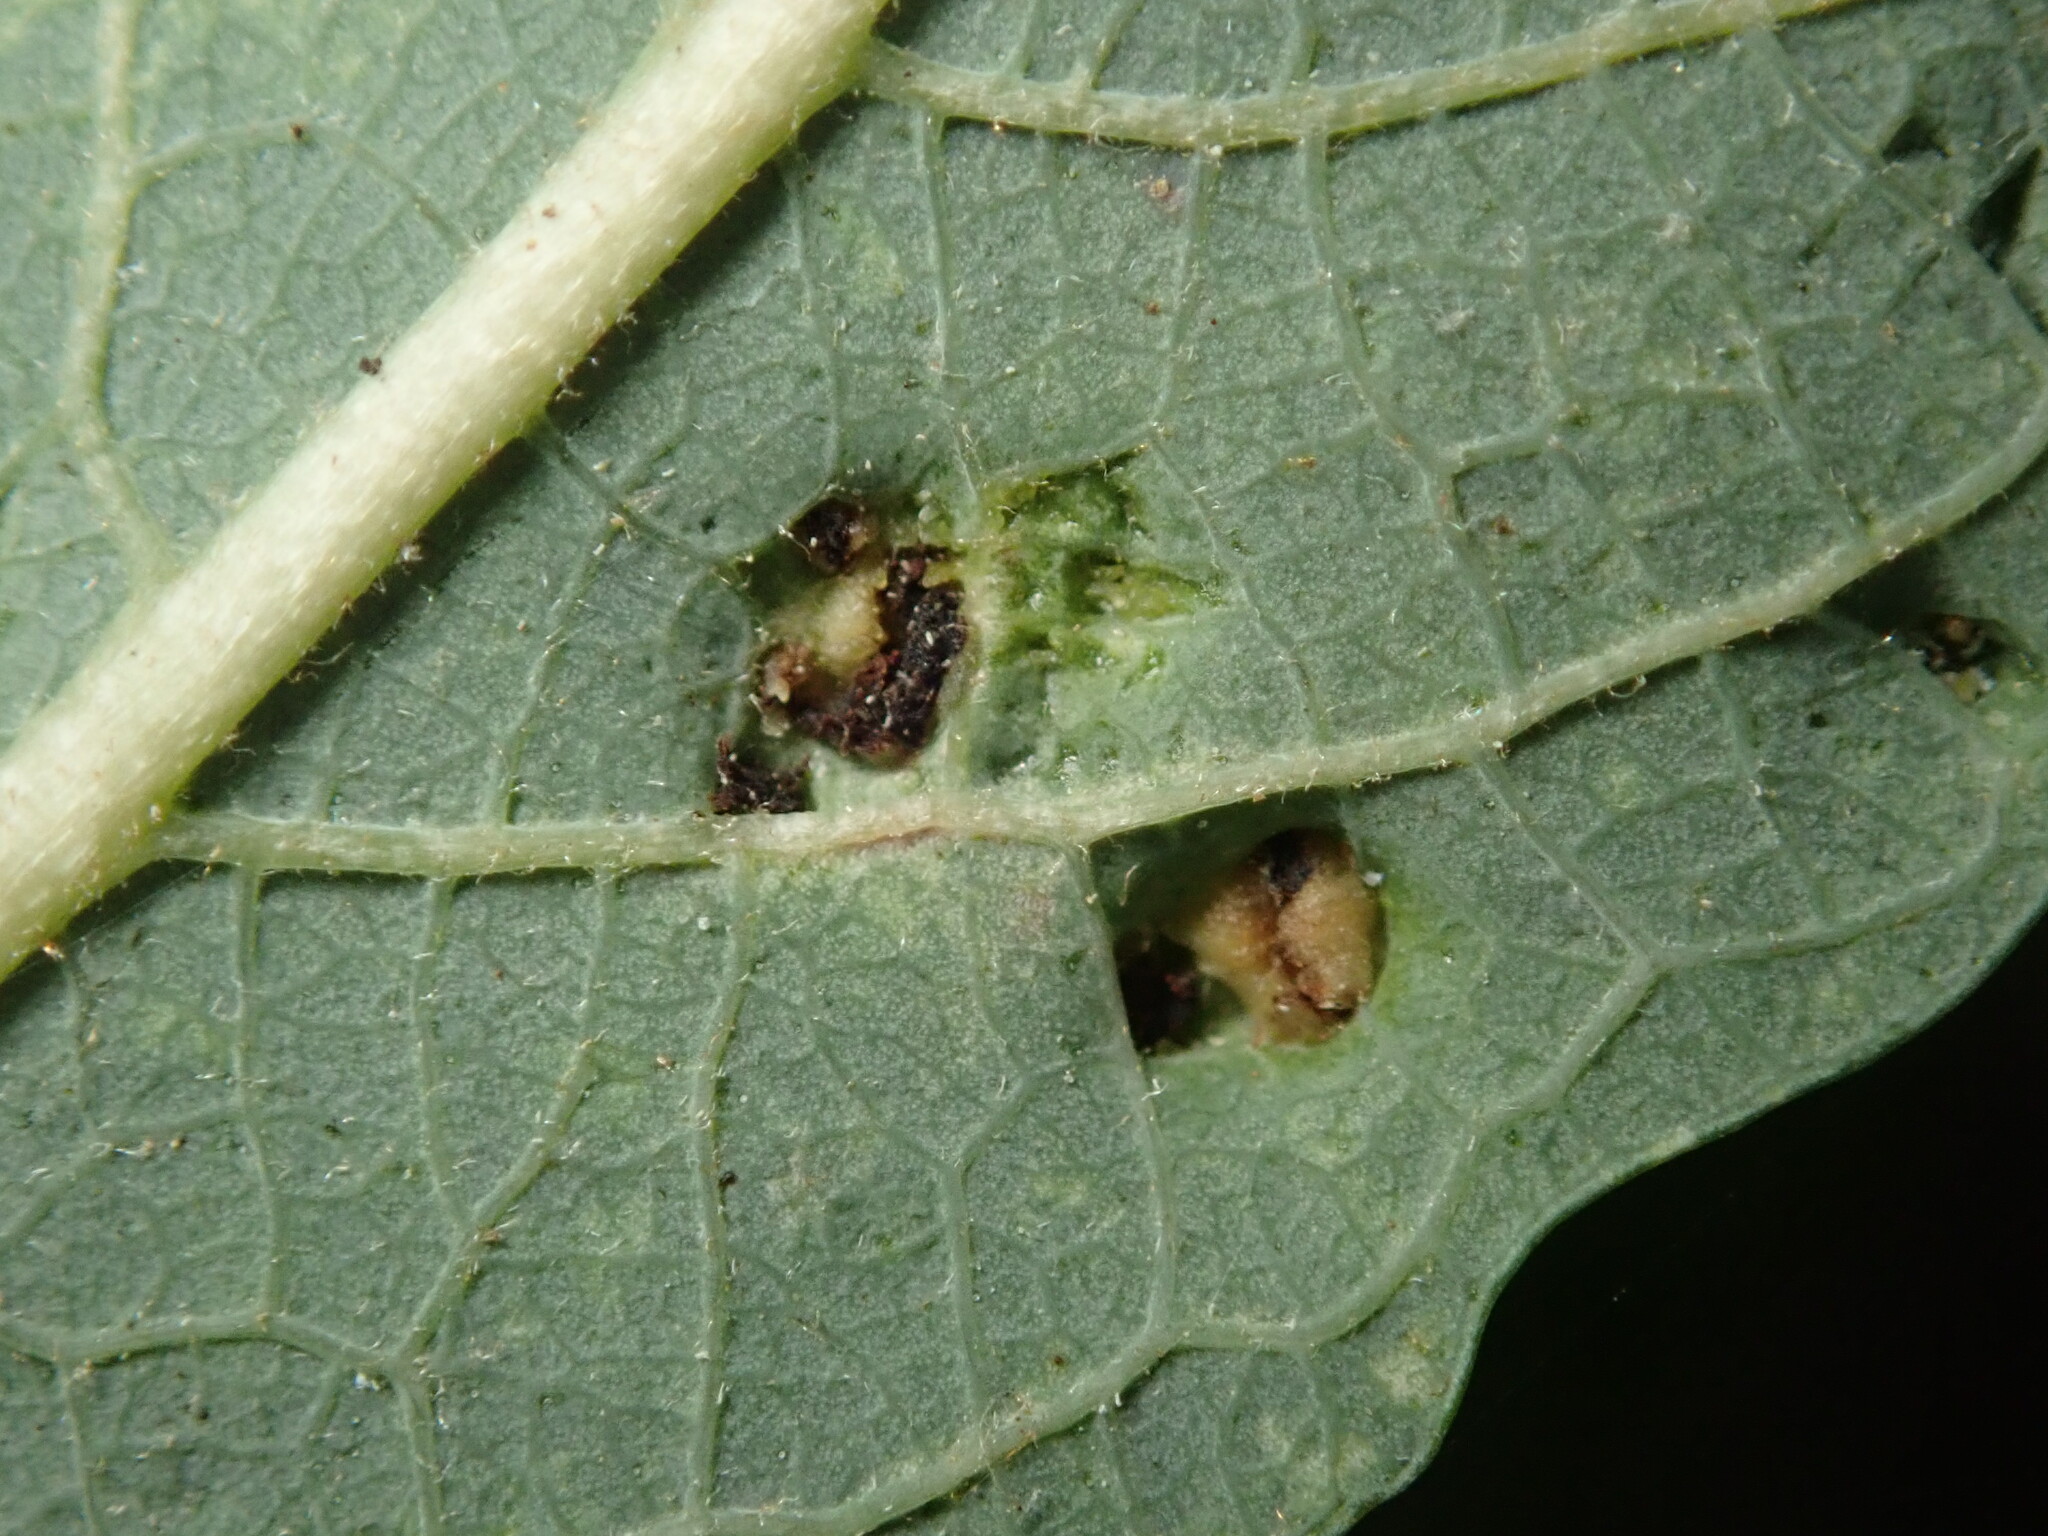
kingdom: Animalia
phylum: Arthropoda
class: Arachnida
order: Trombidiformes
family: Eriophyidae
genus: Aculus
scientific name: Aculus tetanothrix
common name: Willow bead gall mite
